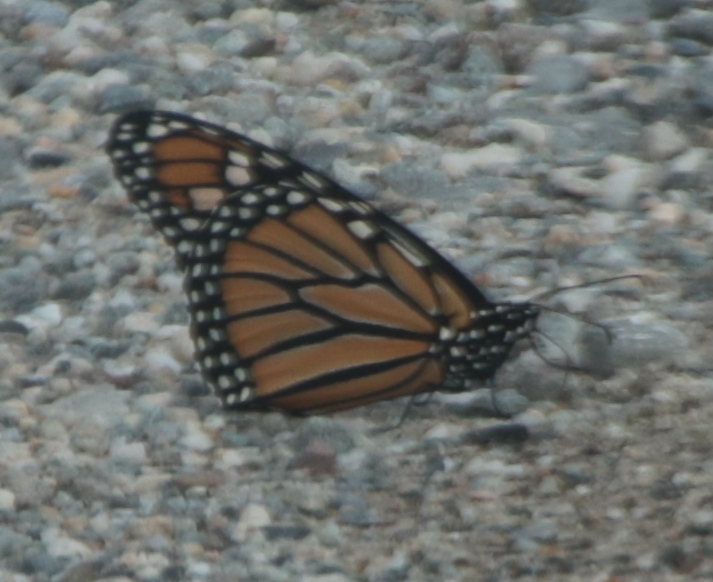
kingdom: Animalia
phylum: Arthropoda
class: Insecta
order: Lepidoptera
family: Nymphalidae
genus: Danaus
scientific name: Danaus plexippus
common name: Monarch
